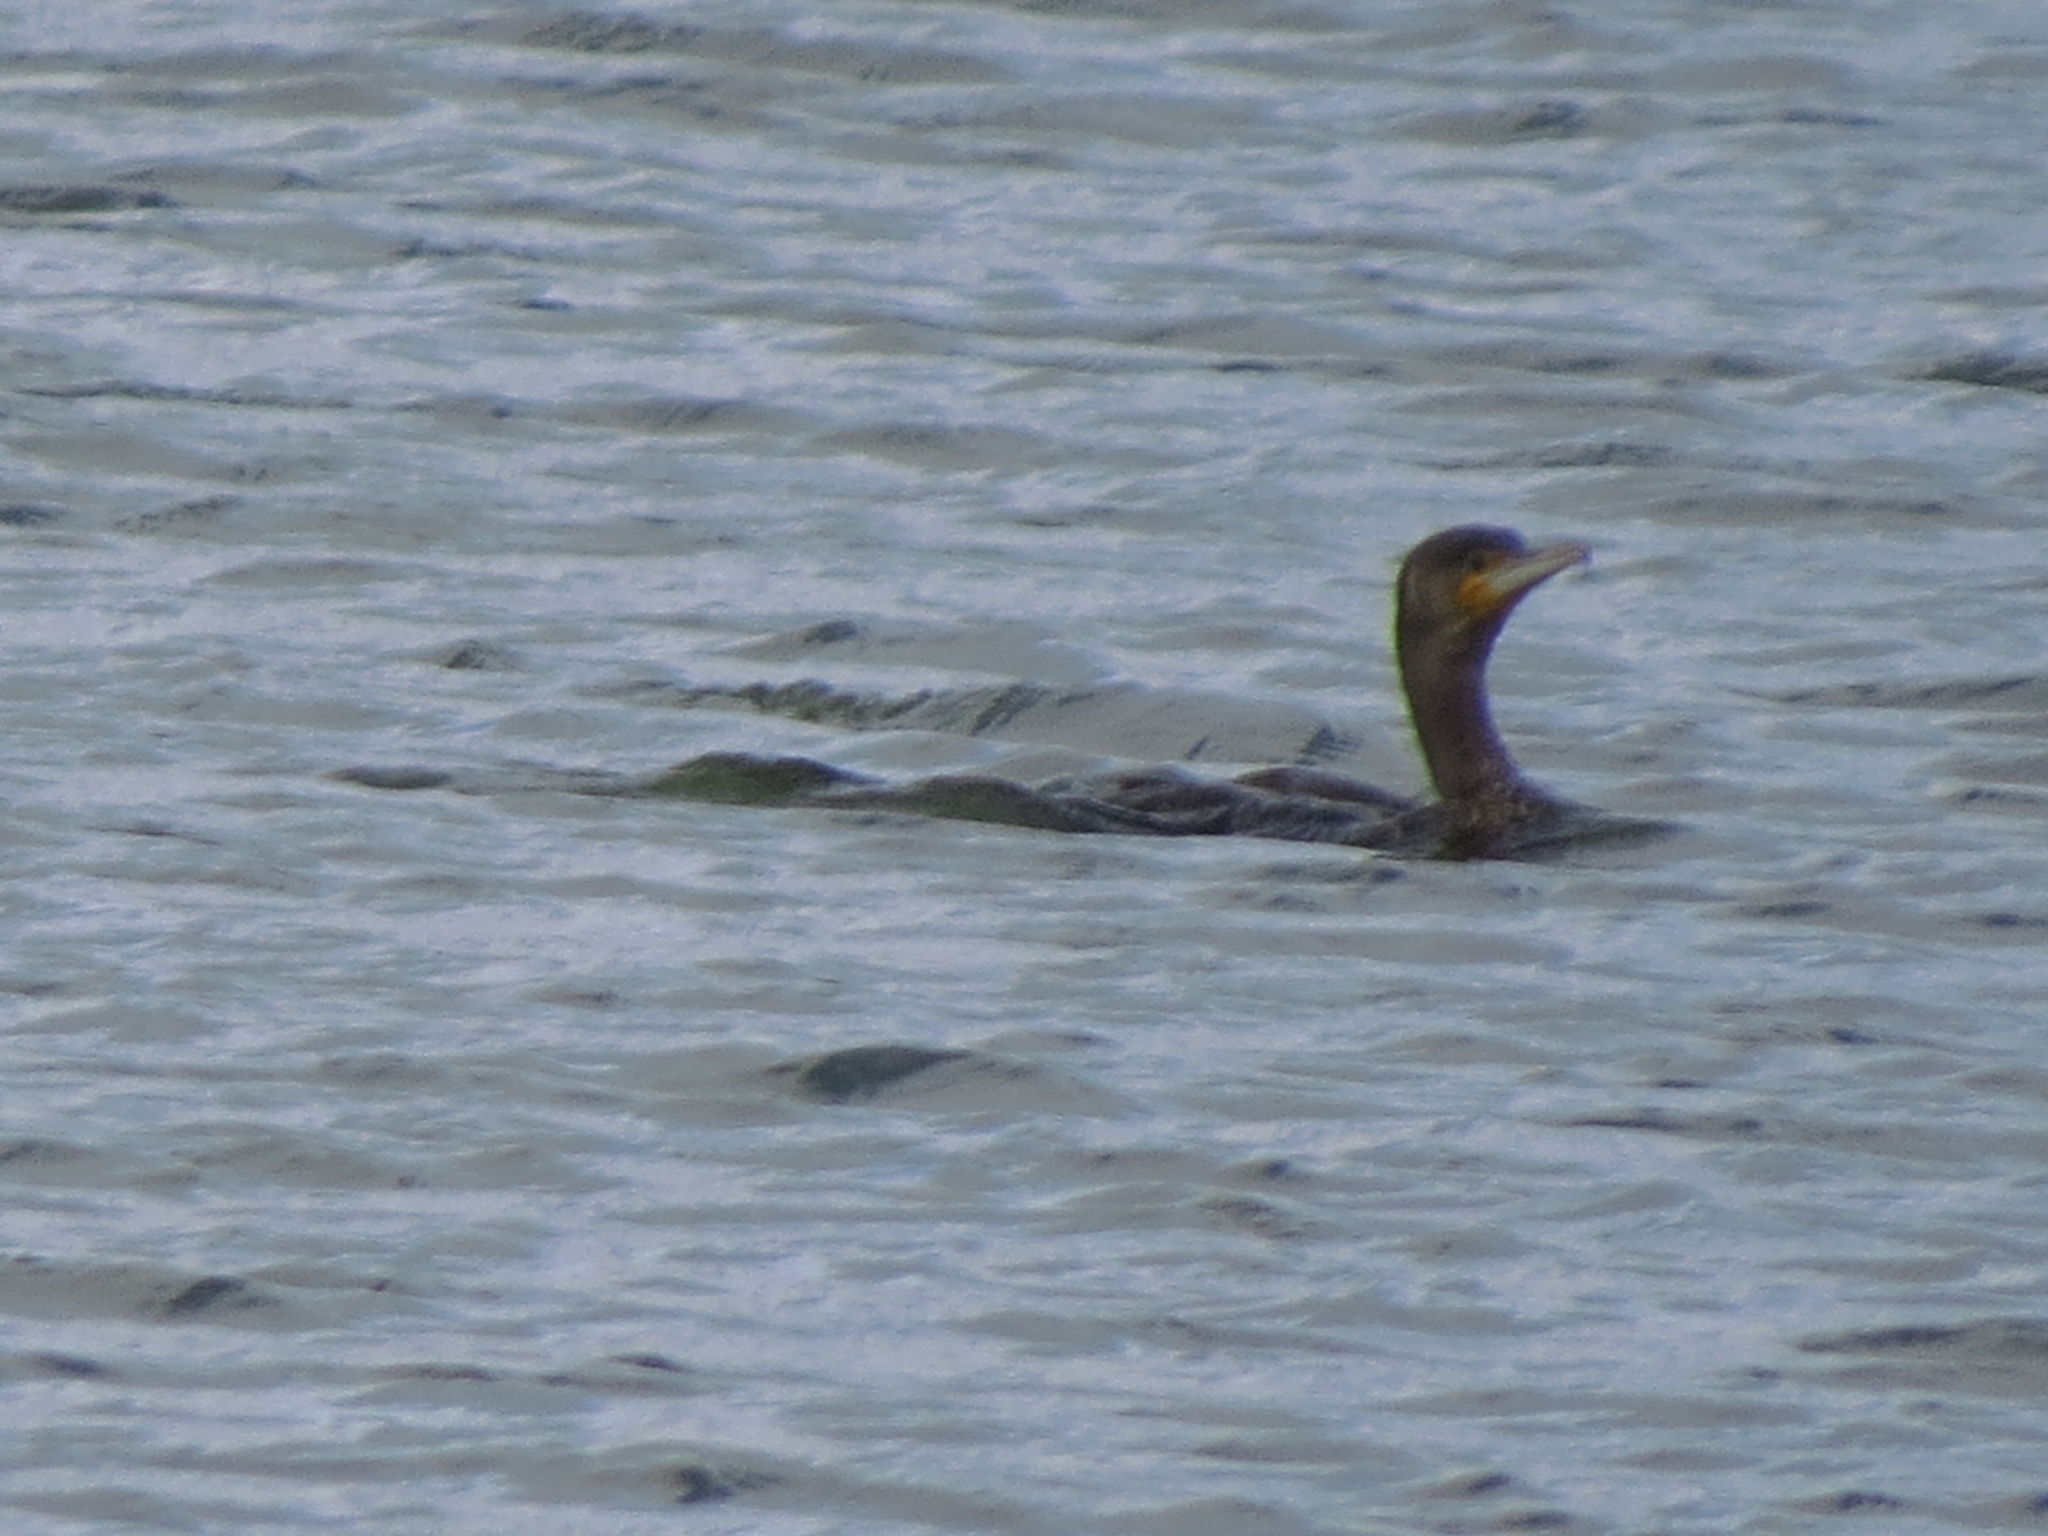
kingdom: Animalia
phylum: Chordata
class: Aves
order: Suliformes
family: Phalacrocoracidae
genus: Phalacrocorax
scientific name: Phalacrocorax carbo
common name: Great cormorant
